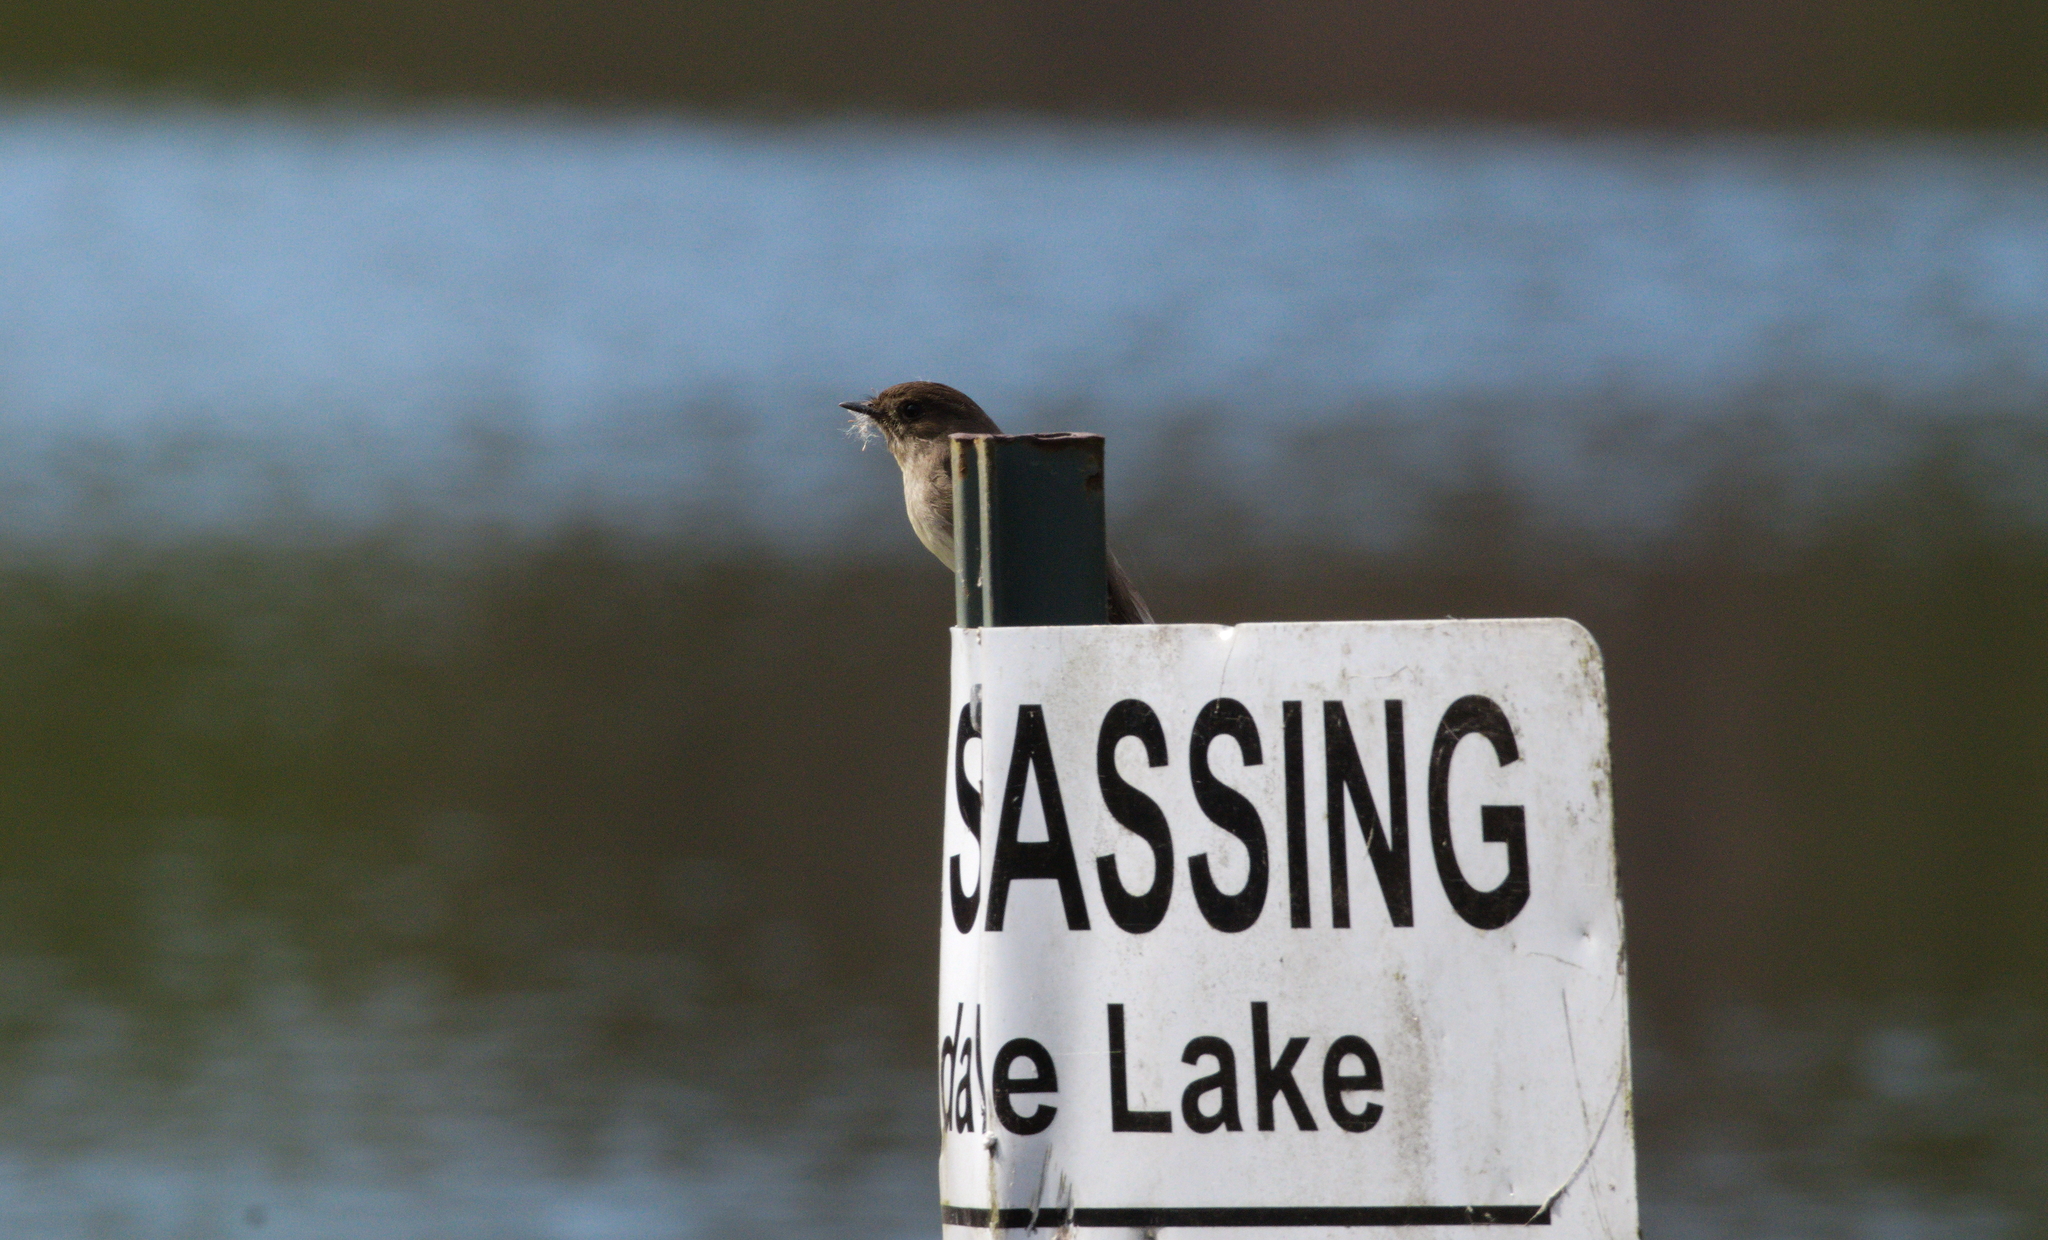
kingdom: Animalia
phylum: Chordata
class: Aves
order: Passeriformes
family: Tyrannidae
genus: Sayornis
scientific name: Sayornis phoebe
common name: Eastern phoebe
